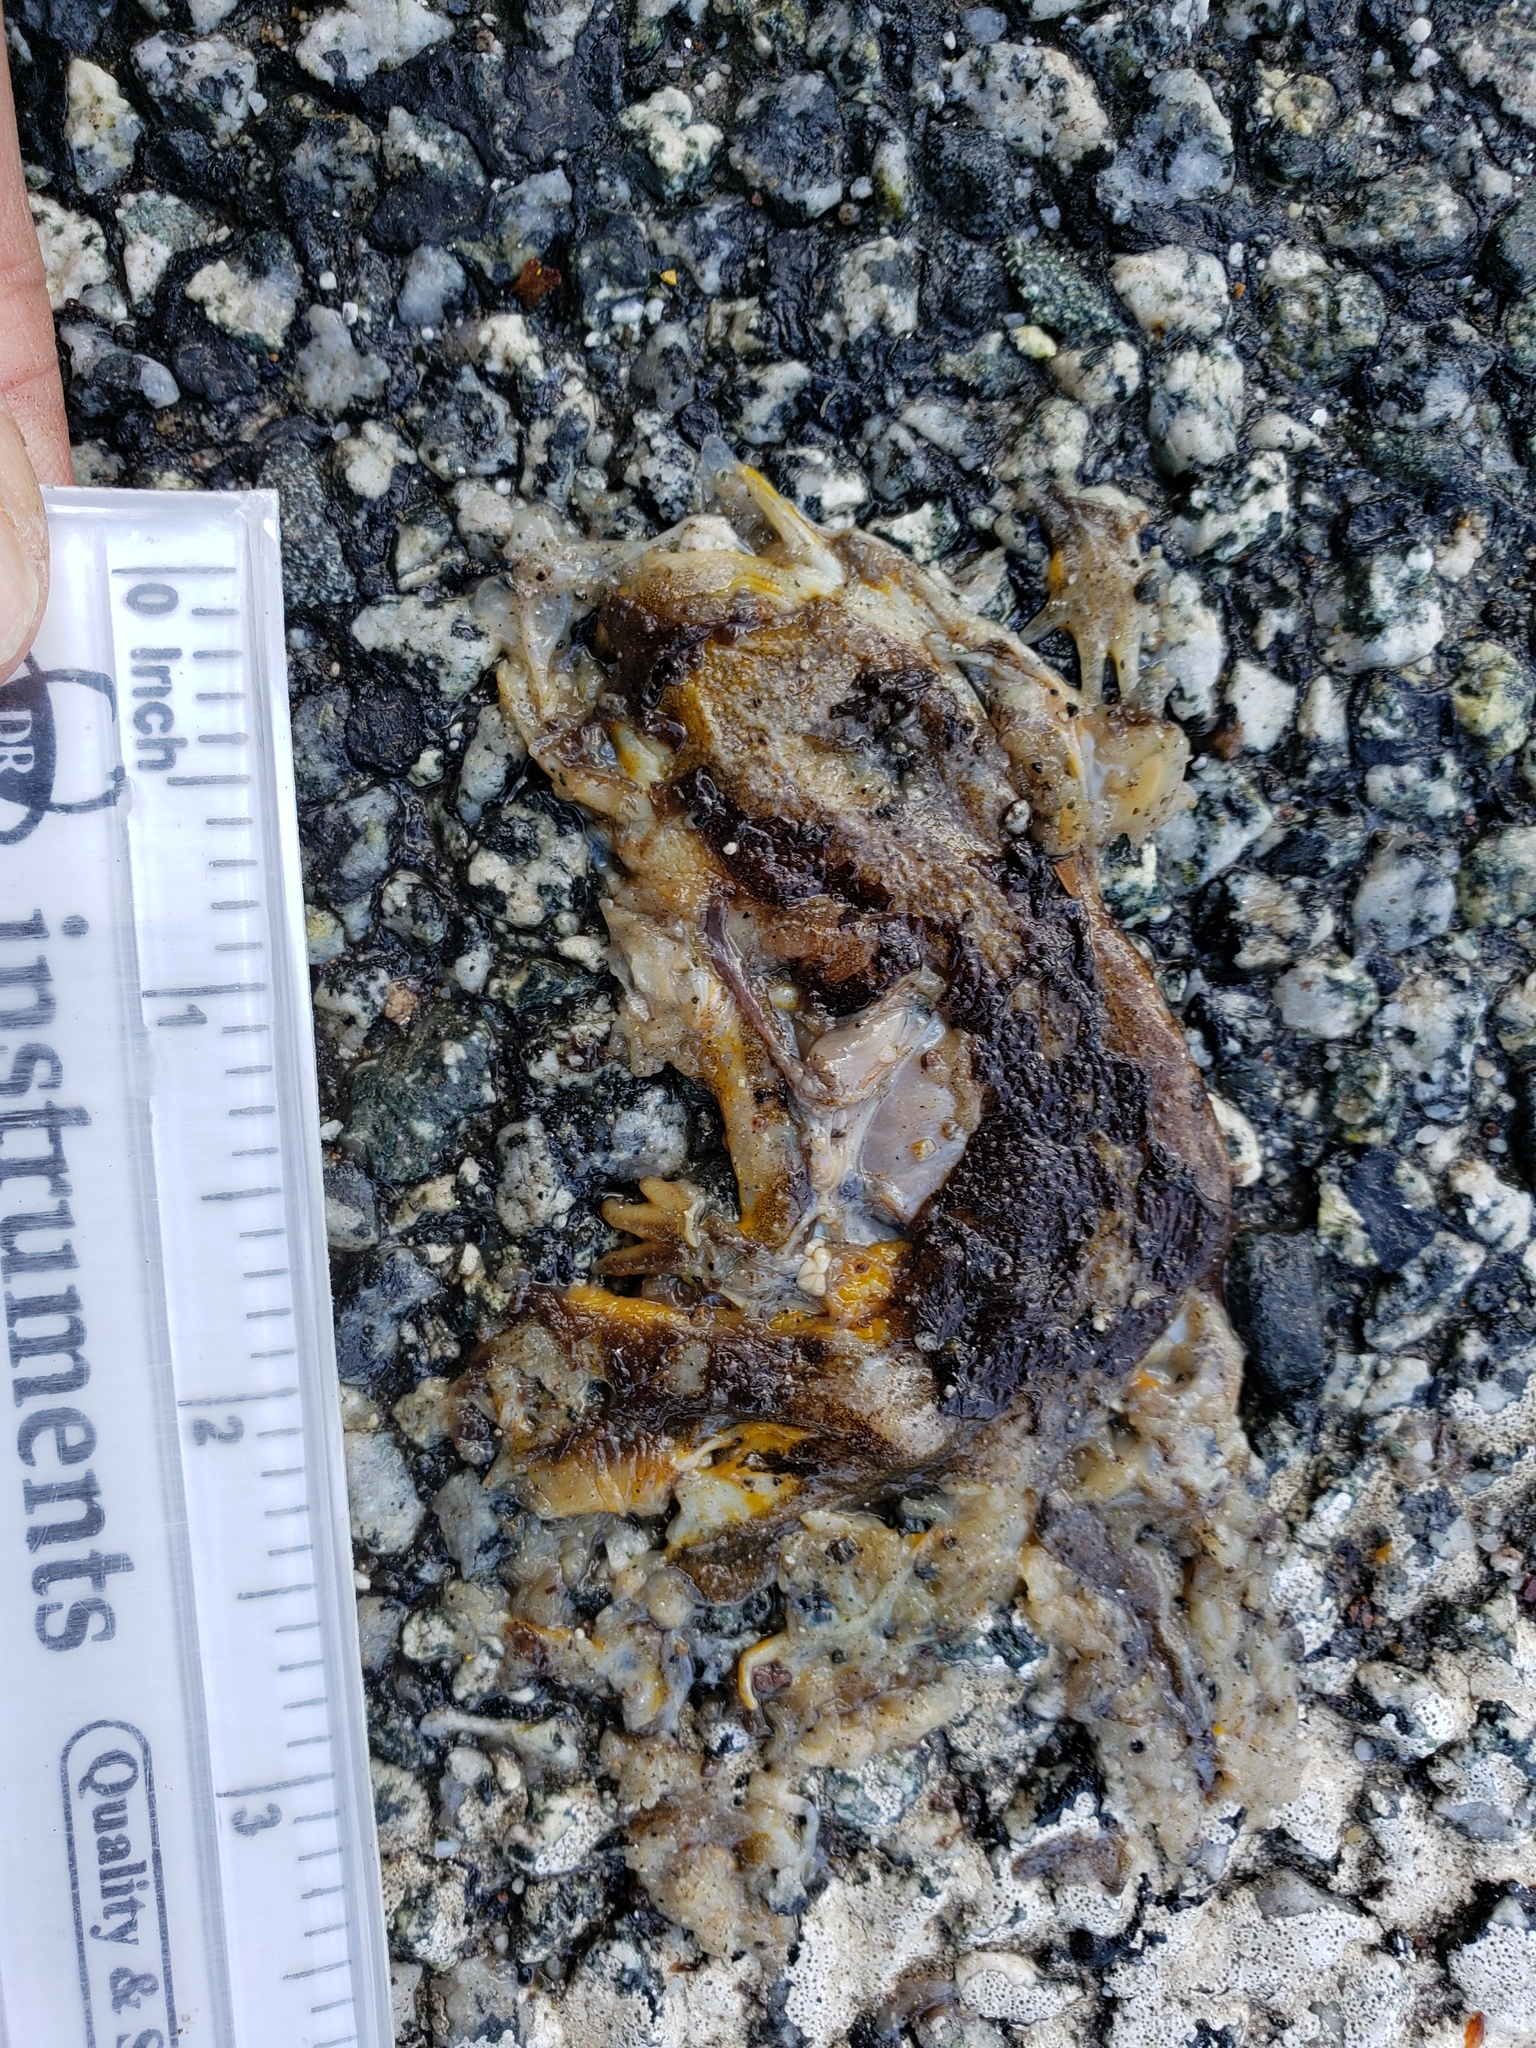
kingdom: Animalia
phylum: Chordata
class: Amphibia
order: Caudata
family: Salamandridae
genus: Taricha
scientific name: Taricha
